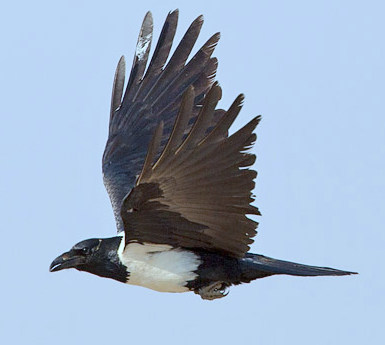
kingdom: Animalia
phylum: Chordata
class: Aves
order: Passeriformes
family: Corvidae
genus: Corvus
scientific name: Corvus albus
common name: Pied crow
